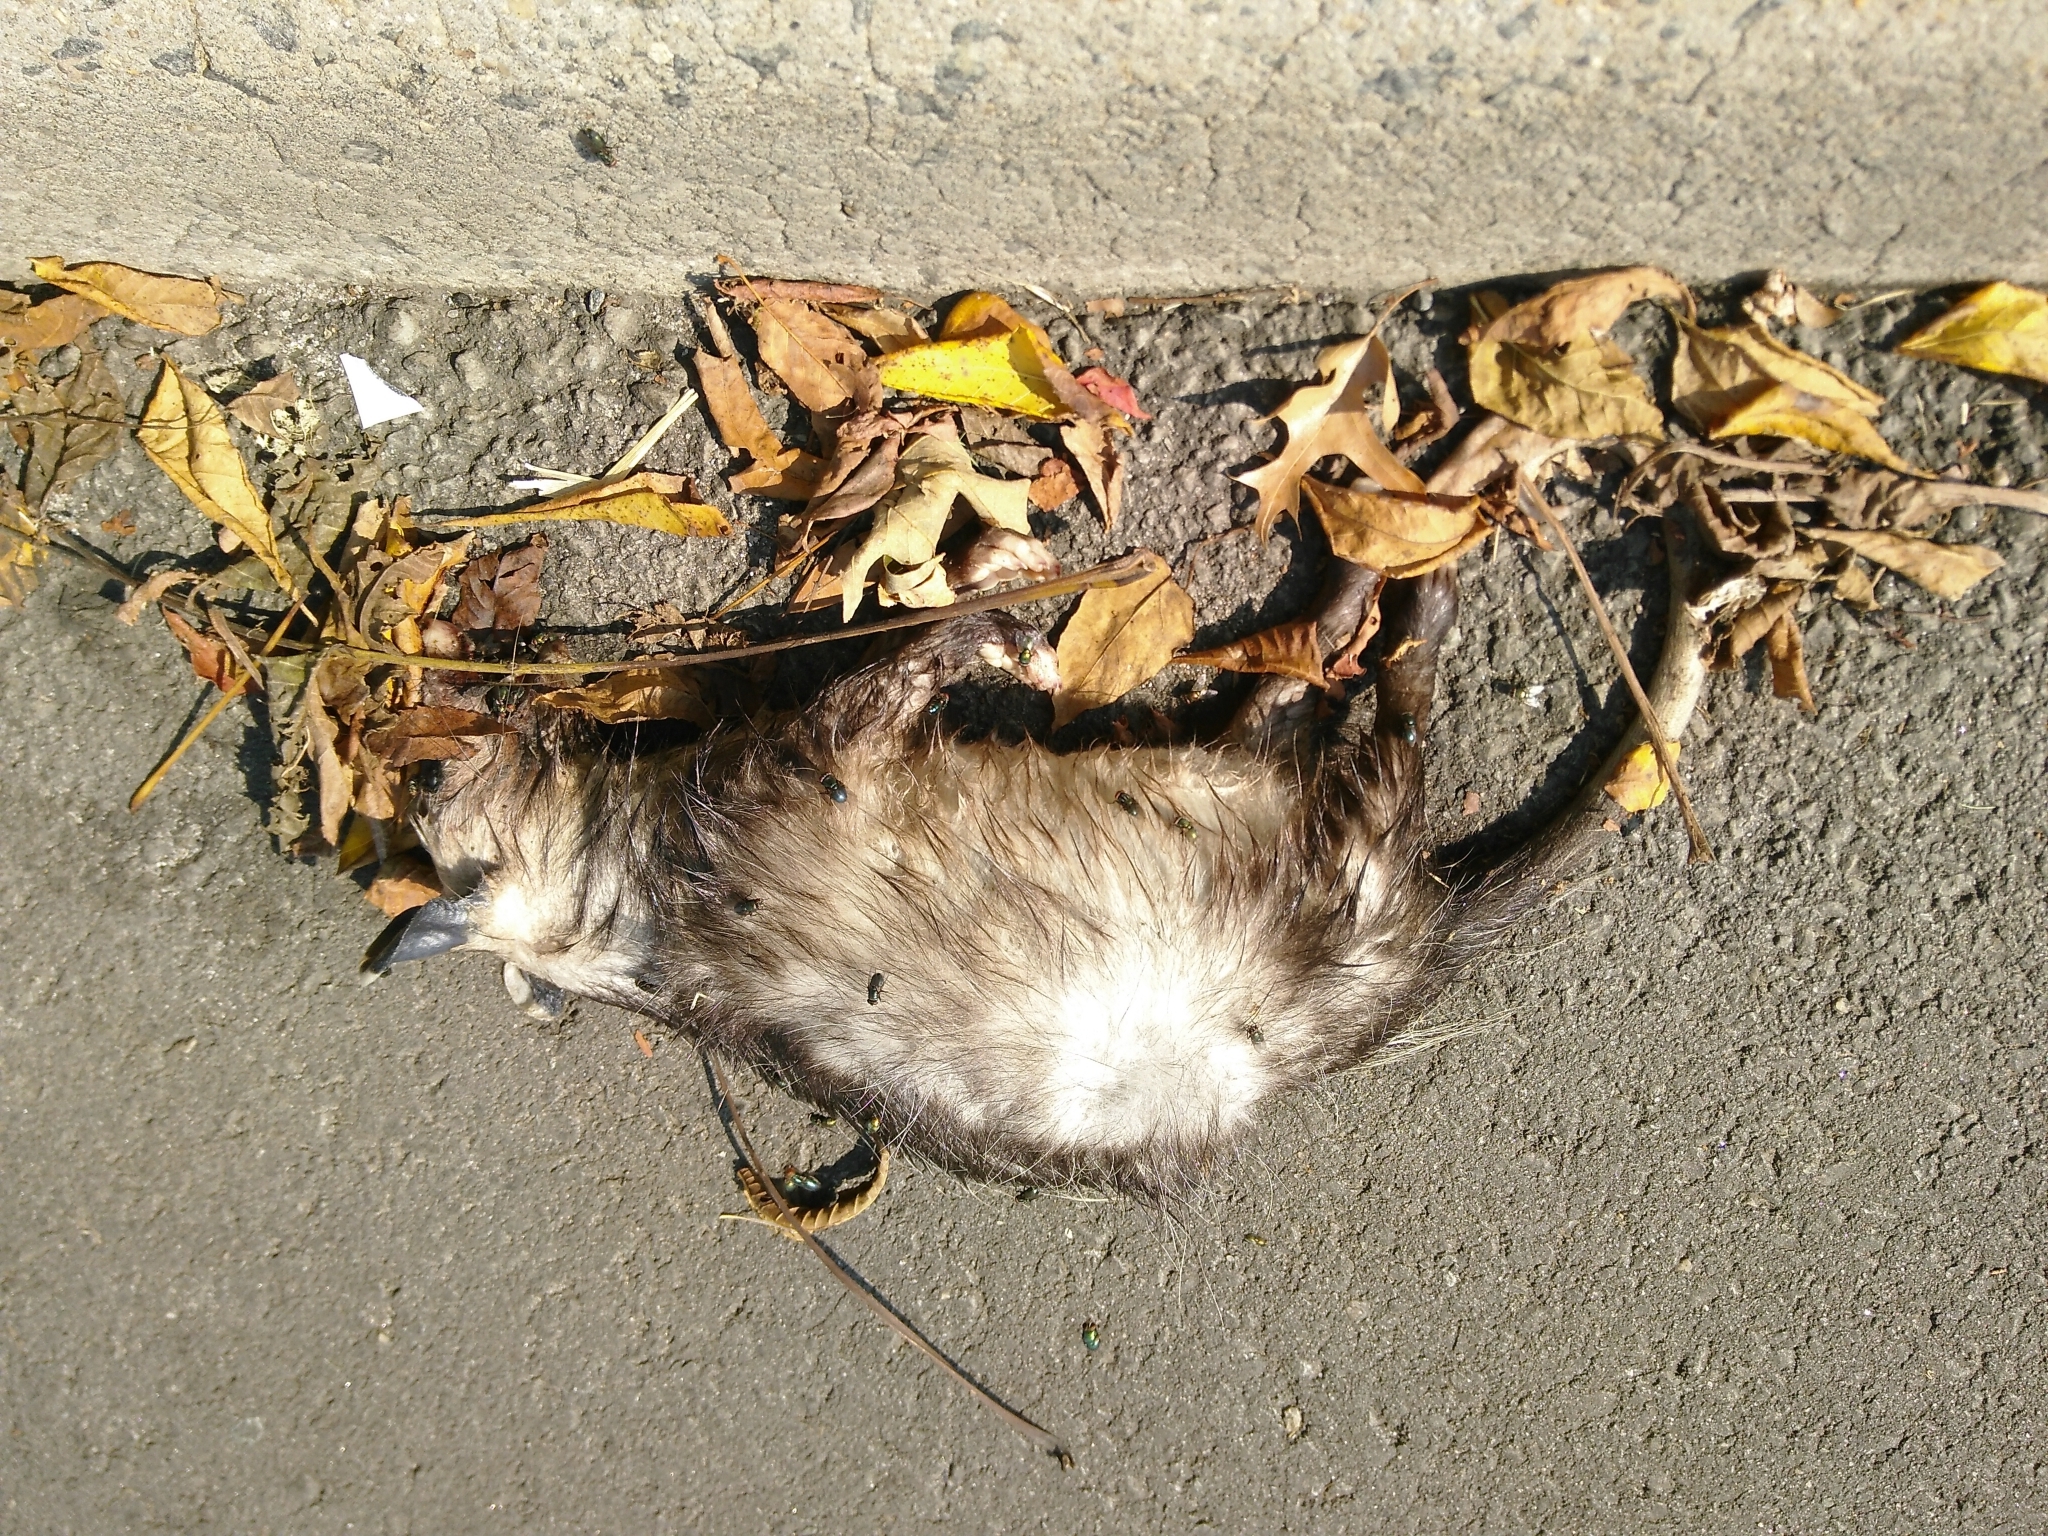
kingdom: Animalia
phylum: Chordata
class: Mammalia
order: Didelphimorphia
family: Didelphidae
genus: Didelphis
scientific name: Didelphis virginiana
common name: Virginia opossum
